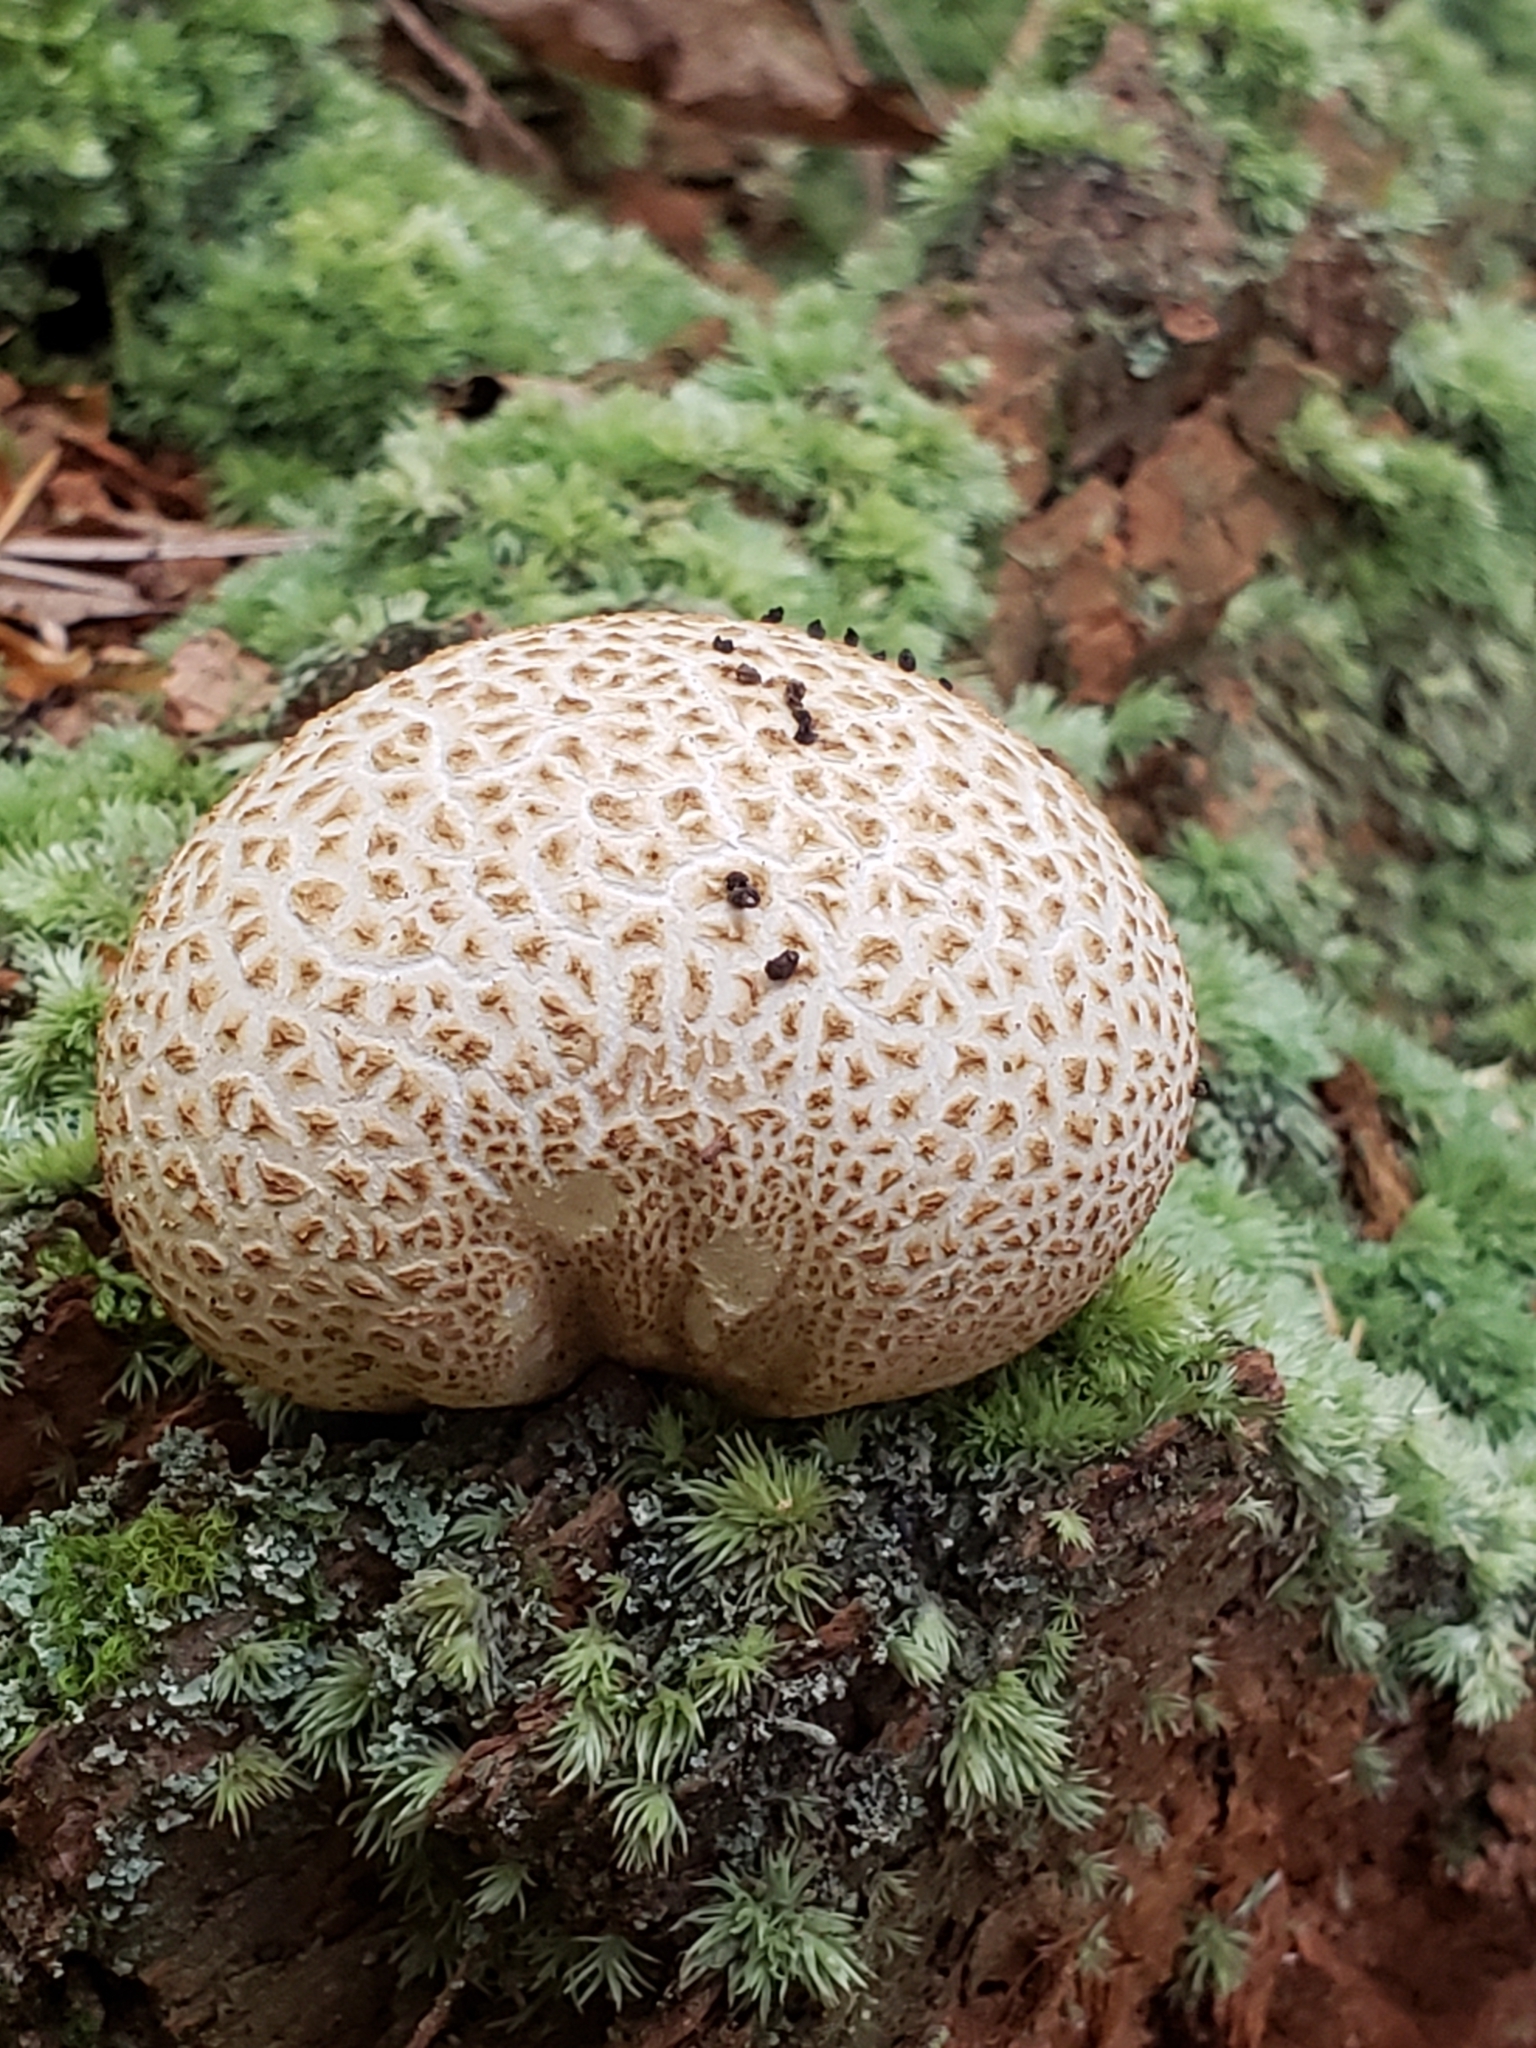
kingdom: Fungi
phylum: Basidiomycota
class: Agaricomycetes
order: Boletales
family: Sclerodermataceae
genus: Scleroderma
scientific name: Scleroderma citrinum
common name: Common earthball
